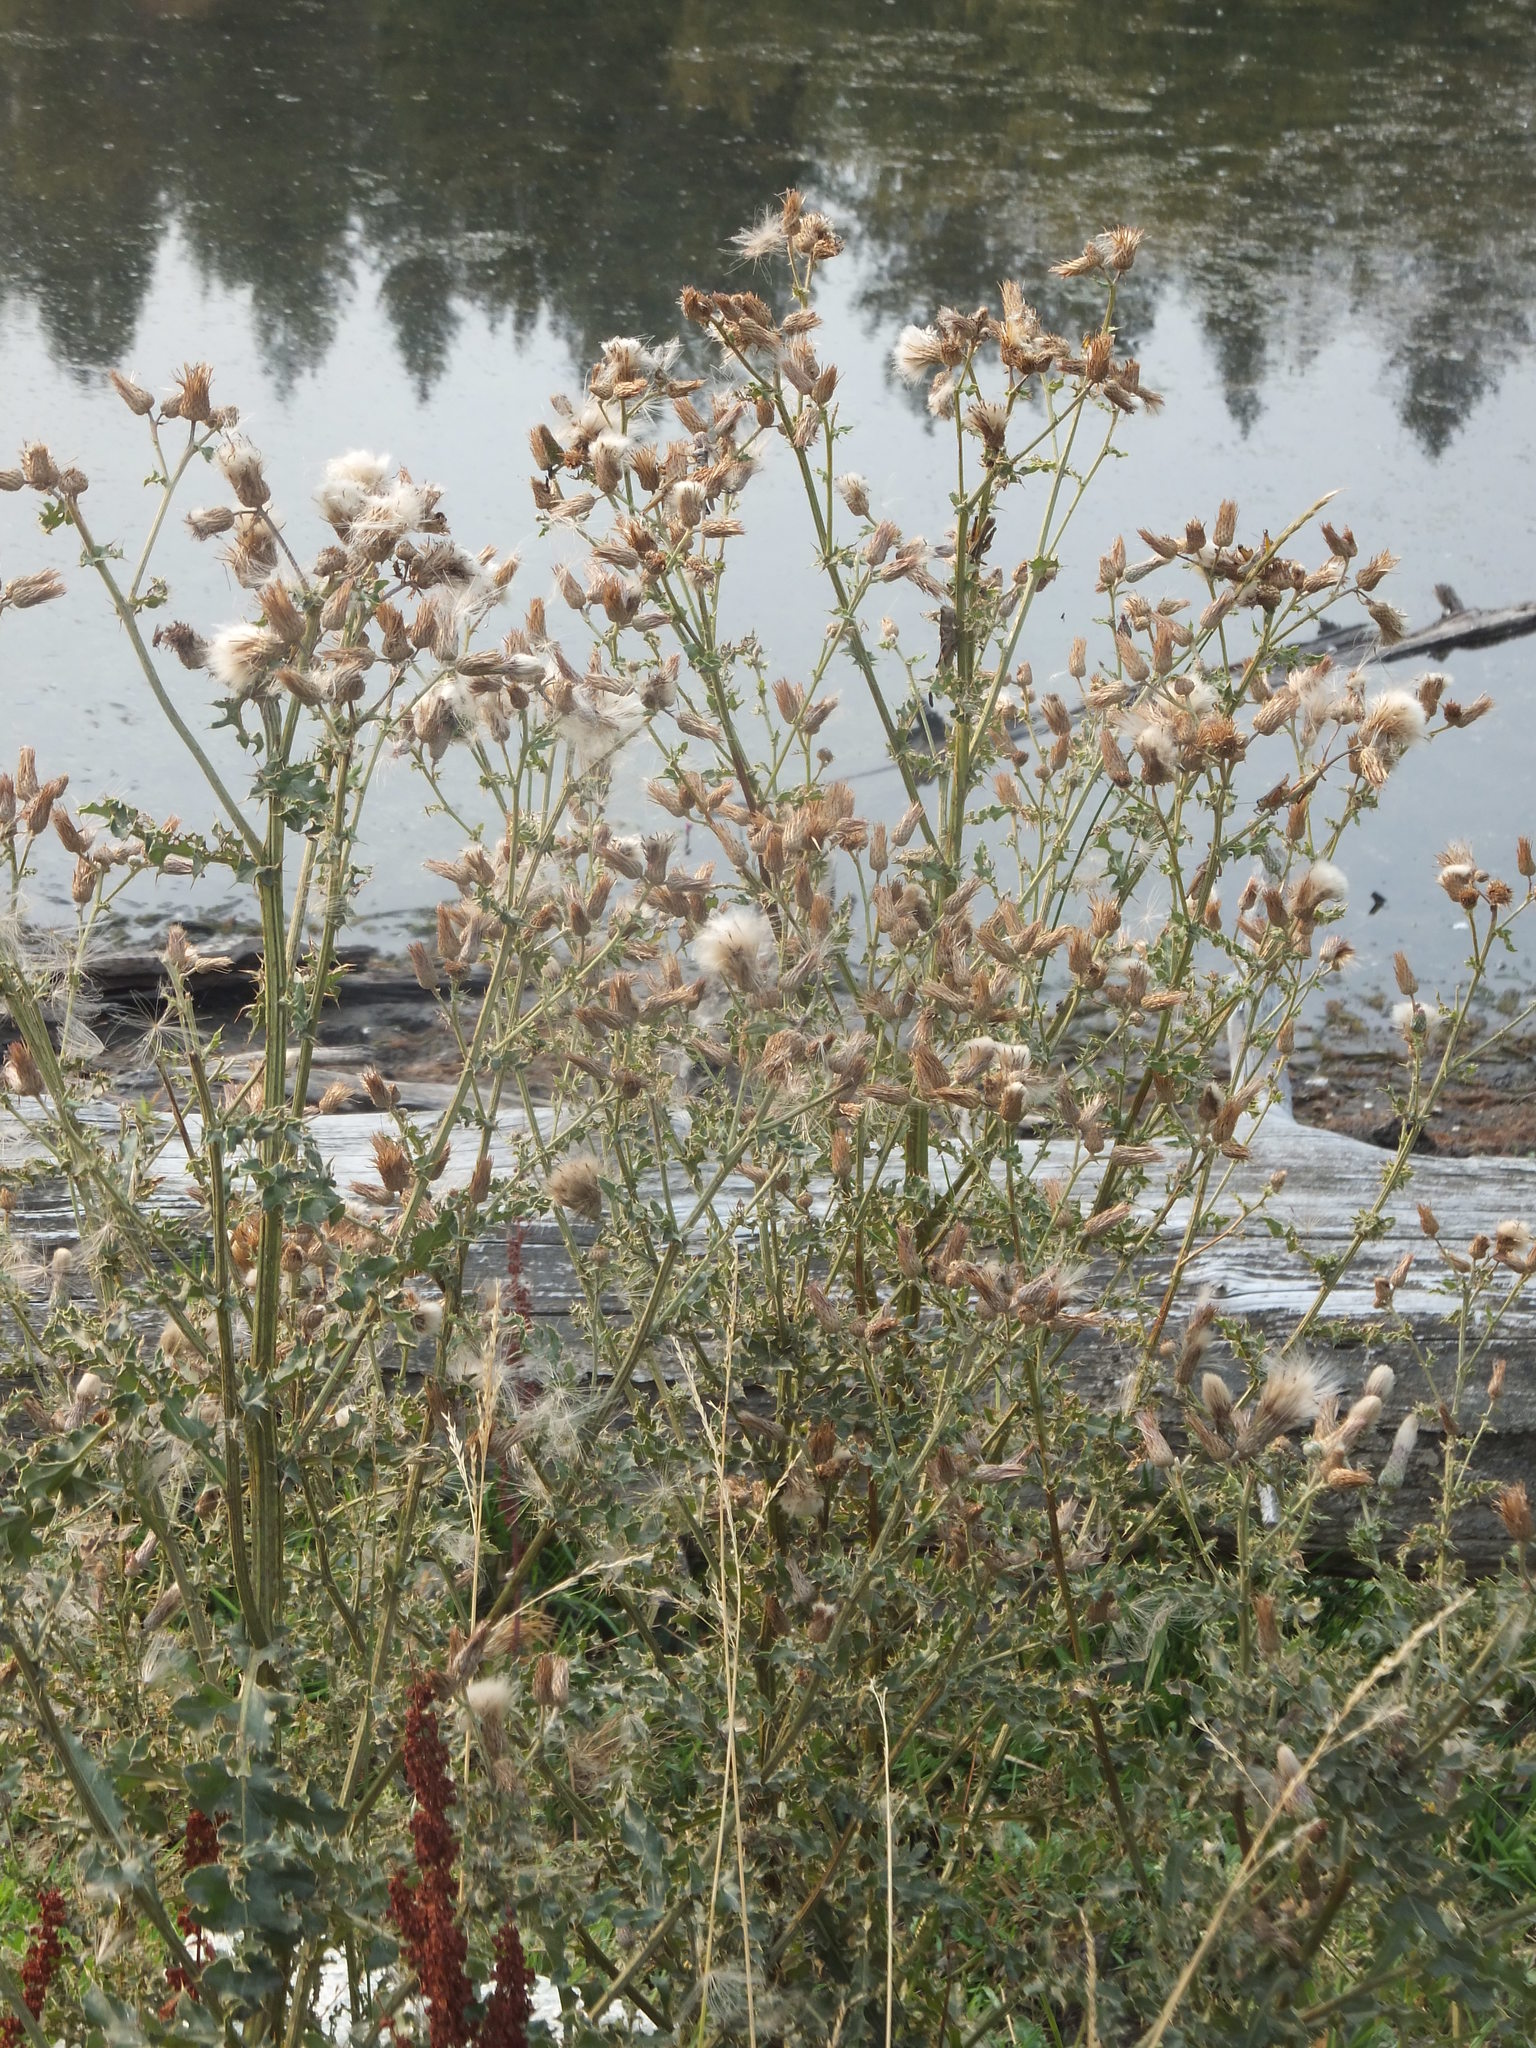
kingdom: Plantae
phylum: Tracheophyta
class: Magnoliopsida
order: Asterales
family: Asteraceae
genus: Cirsium
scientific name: Cirsium arvense
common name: Creeping thistle
